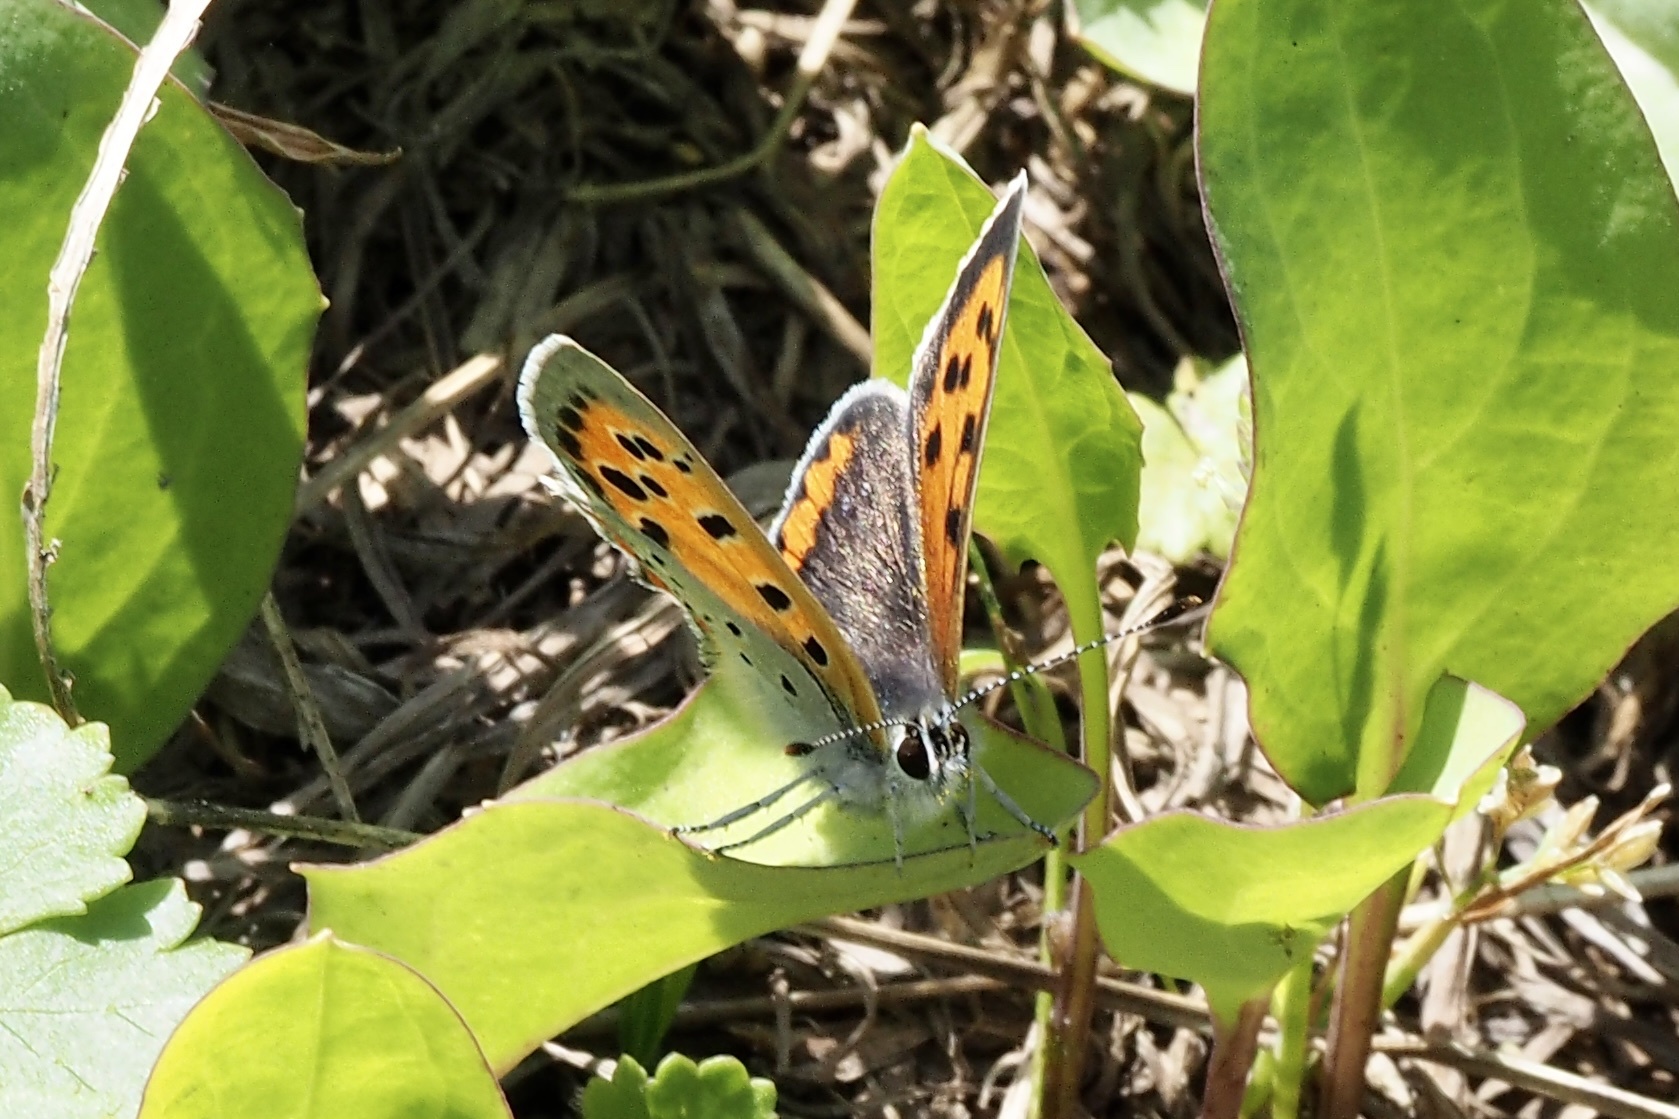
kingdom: Animalia
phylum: Arthropoda
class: Insecta
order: Lepidoptera
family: Lycaenidae
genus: Lycaena
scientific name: Lycaena phlaeas
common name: Small copper
